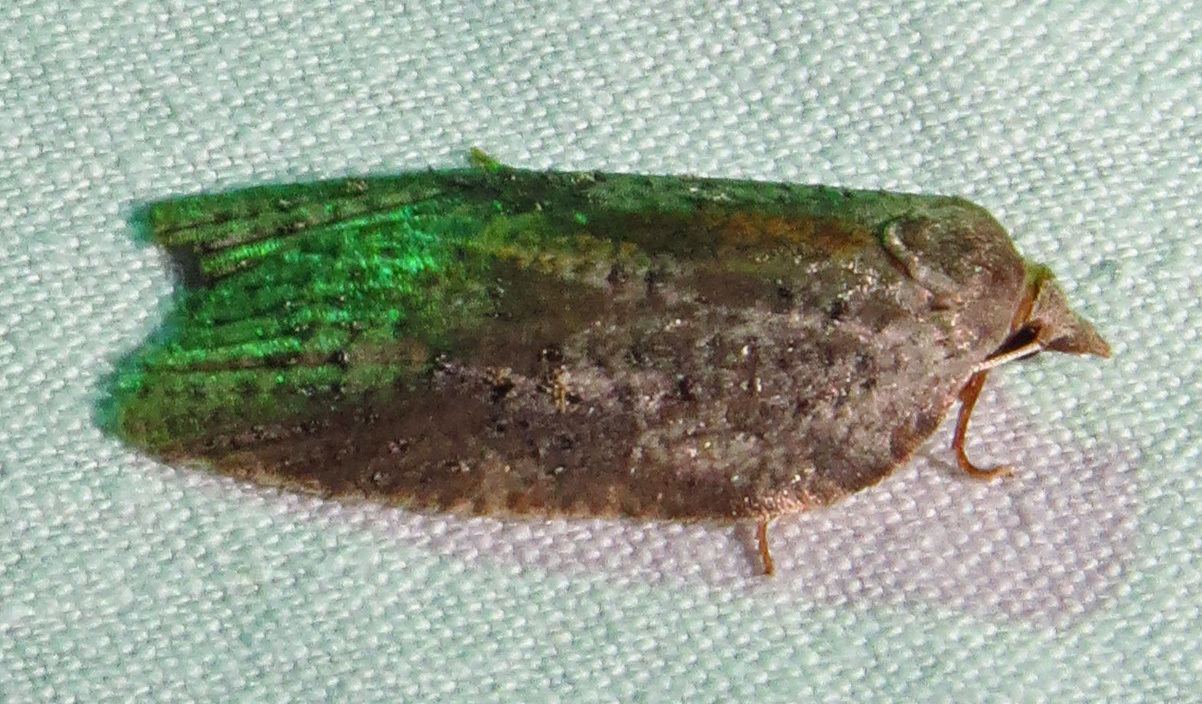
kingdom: Animalia
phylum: Arthropoda
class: Insecta
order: Lepidoptera
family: Tortricidae
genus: Amorbia
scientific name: Amorbia humerosana
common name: White-lined leafroller moth
